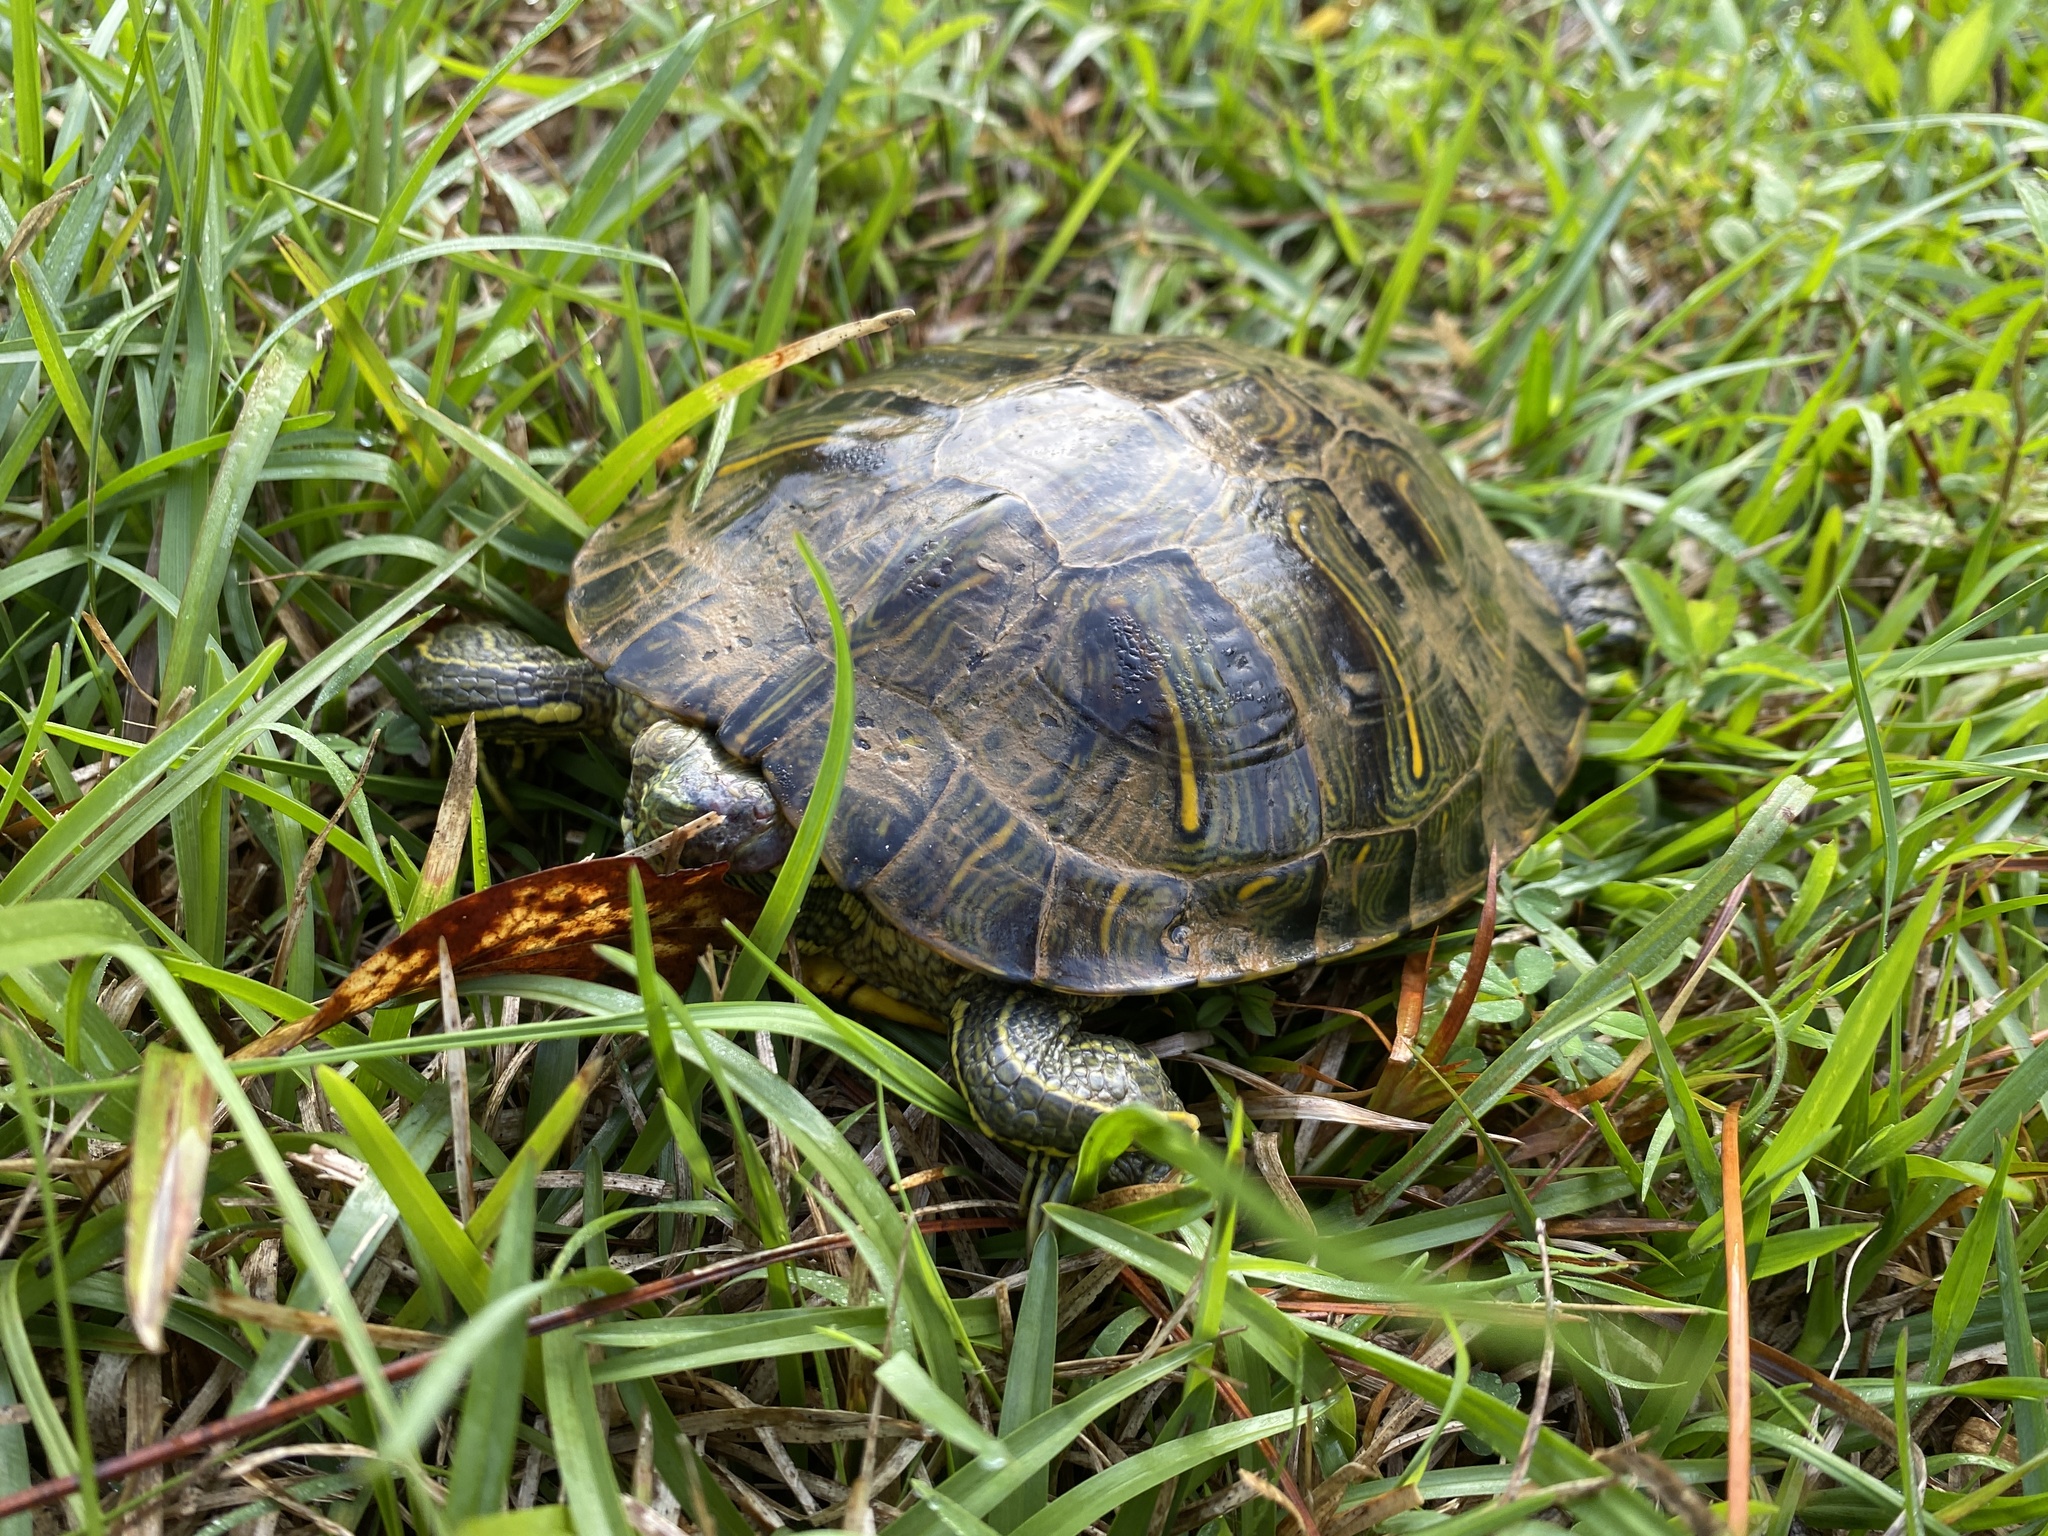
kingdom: Animalia
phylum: Chordata
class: Testudines
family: Emydidae
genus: Trachemys
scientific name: Trachemys scripta
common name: Slider
